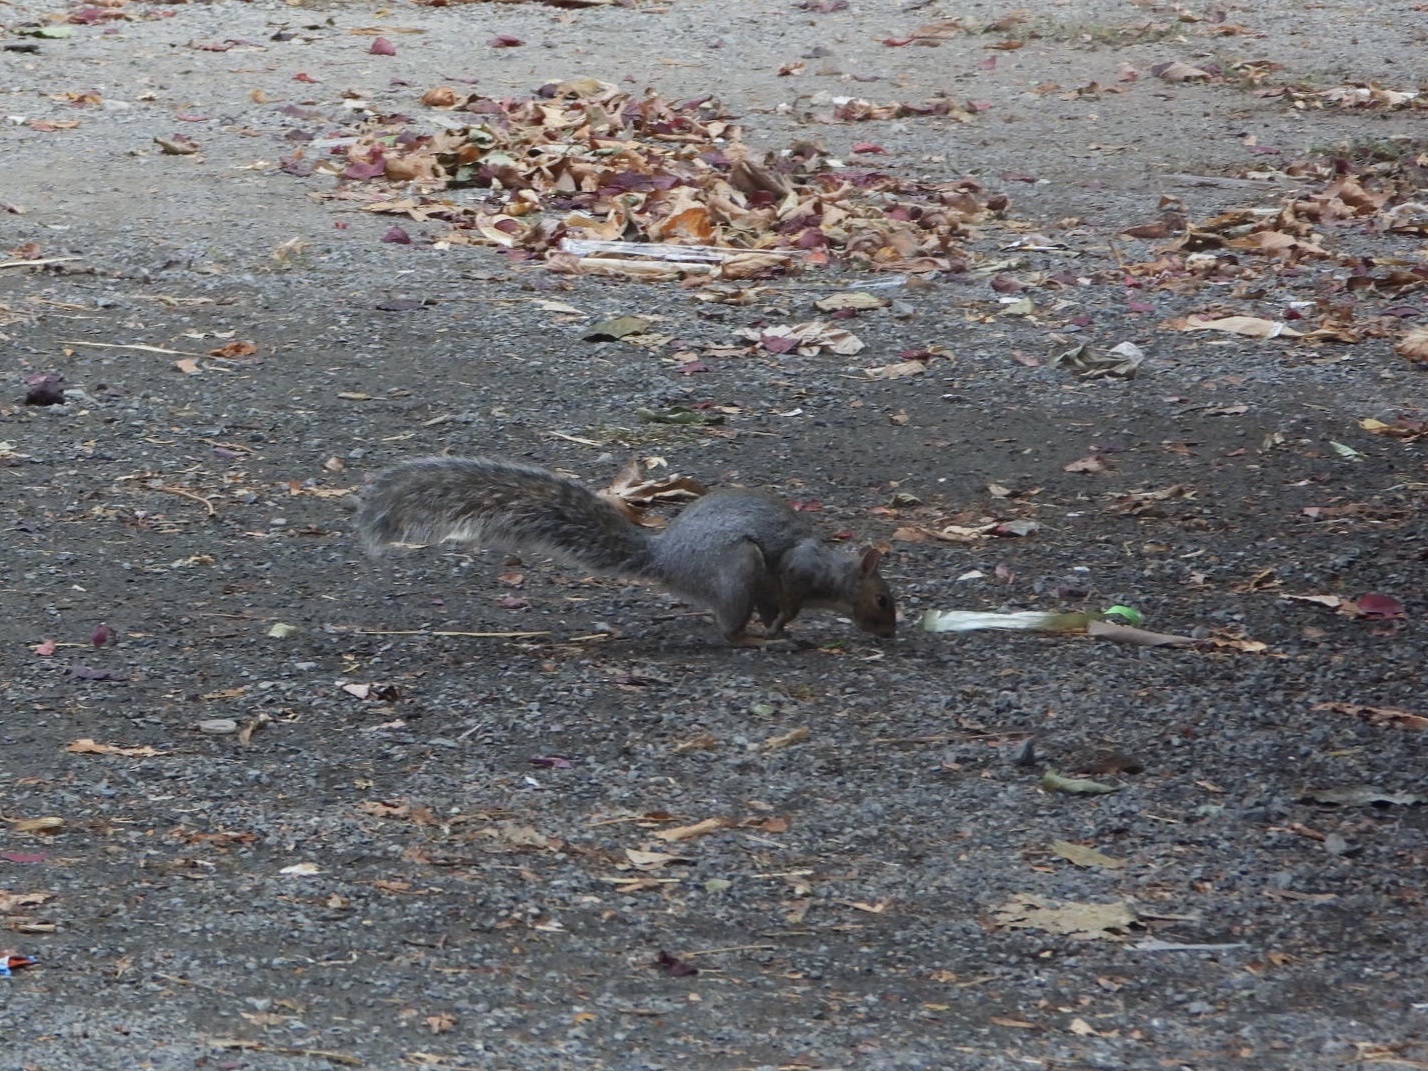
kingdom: Animalia
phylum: Chordata
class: Mammalia
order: Rodentia
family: Sciuridae
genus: Sciurus
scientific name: Sciurus carolinensis
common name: Eastern gray squirrel
